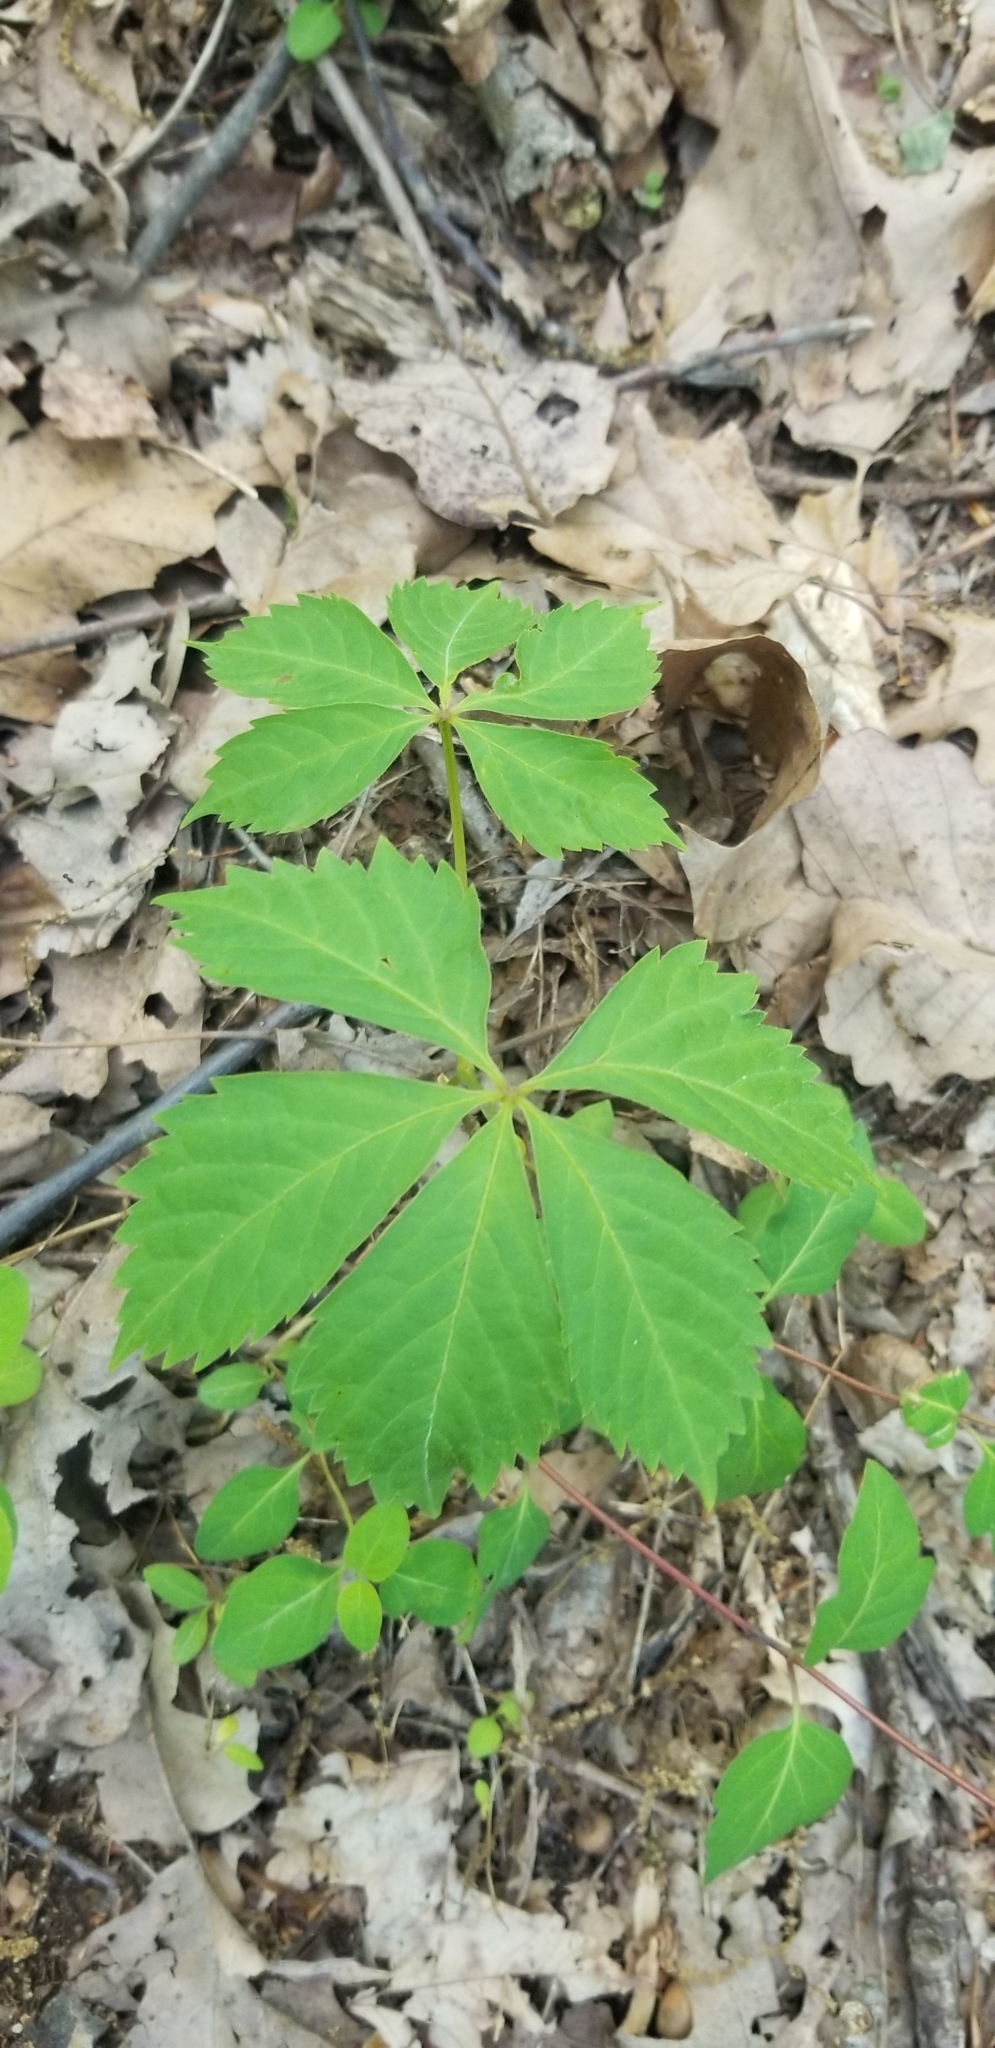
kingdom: Plantae
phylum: Tracheophyta
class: Magnoliopsida
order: Vitales
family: Vitaceae
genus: Parthenocissus
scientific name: Parthenocissus quinquefolia
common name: Virginia-creeper
